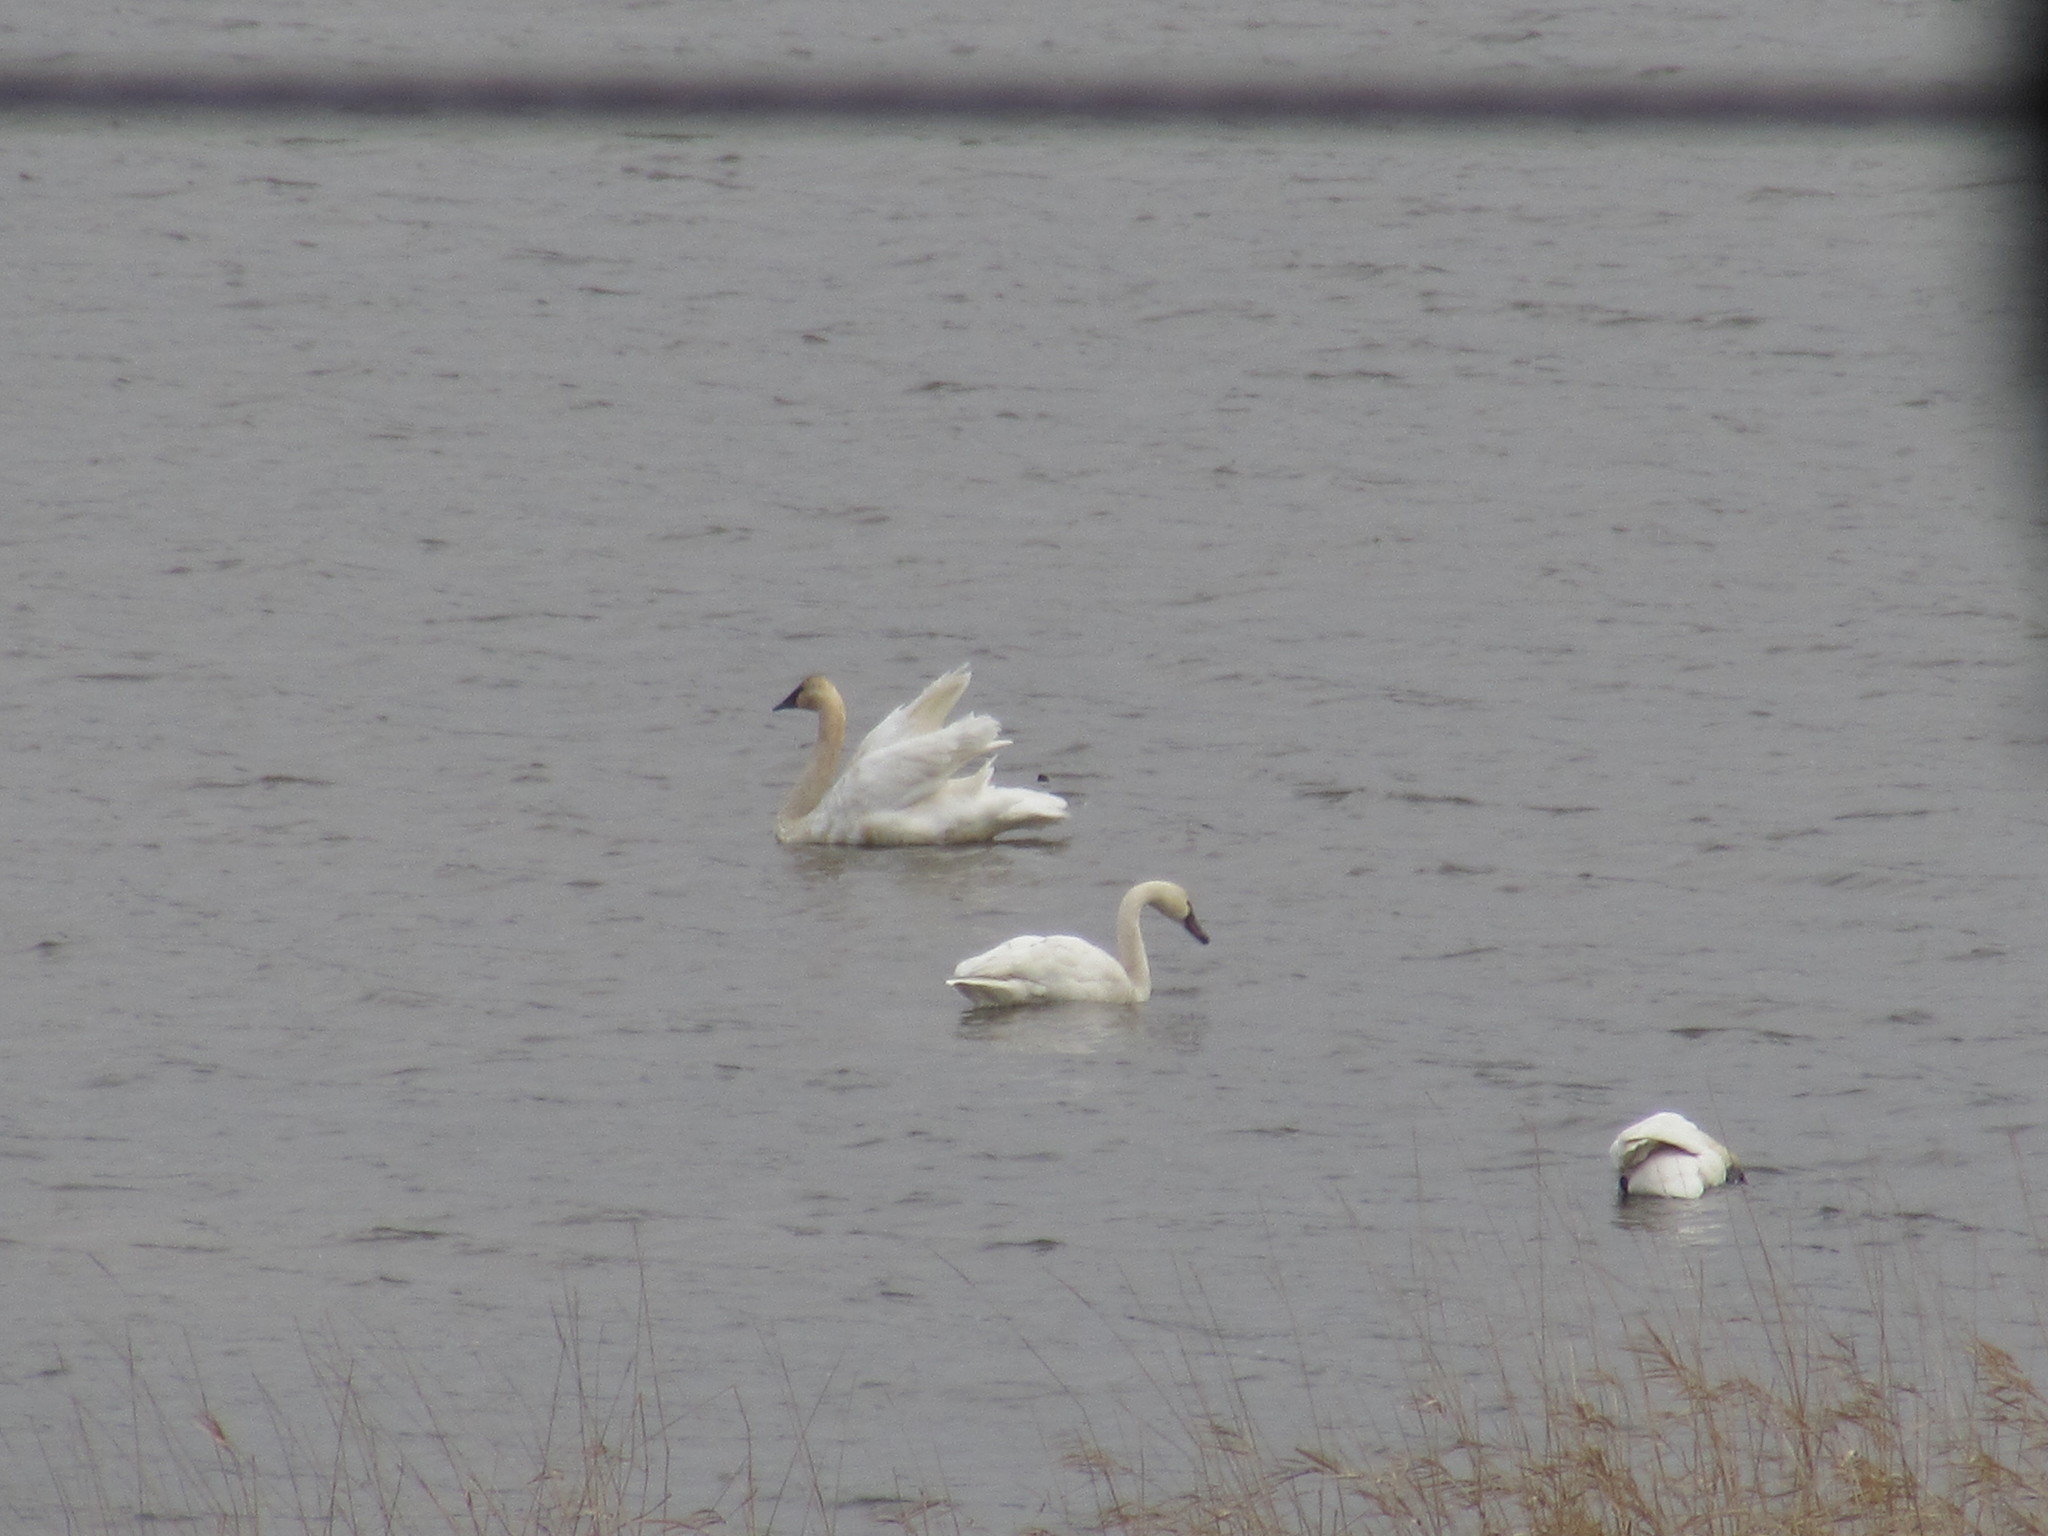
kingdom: Animalia
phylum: Chordata
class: Aves
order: Anseriformes
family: Anatidae
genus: Cygnus
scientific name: Cygnus buccinator
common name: Trumpeter swan
